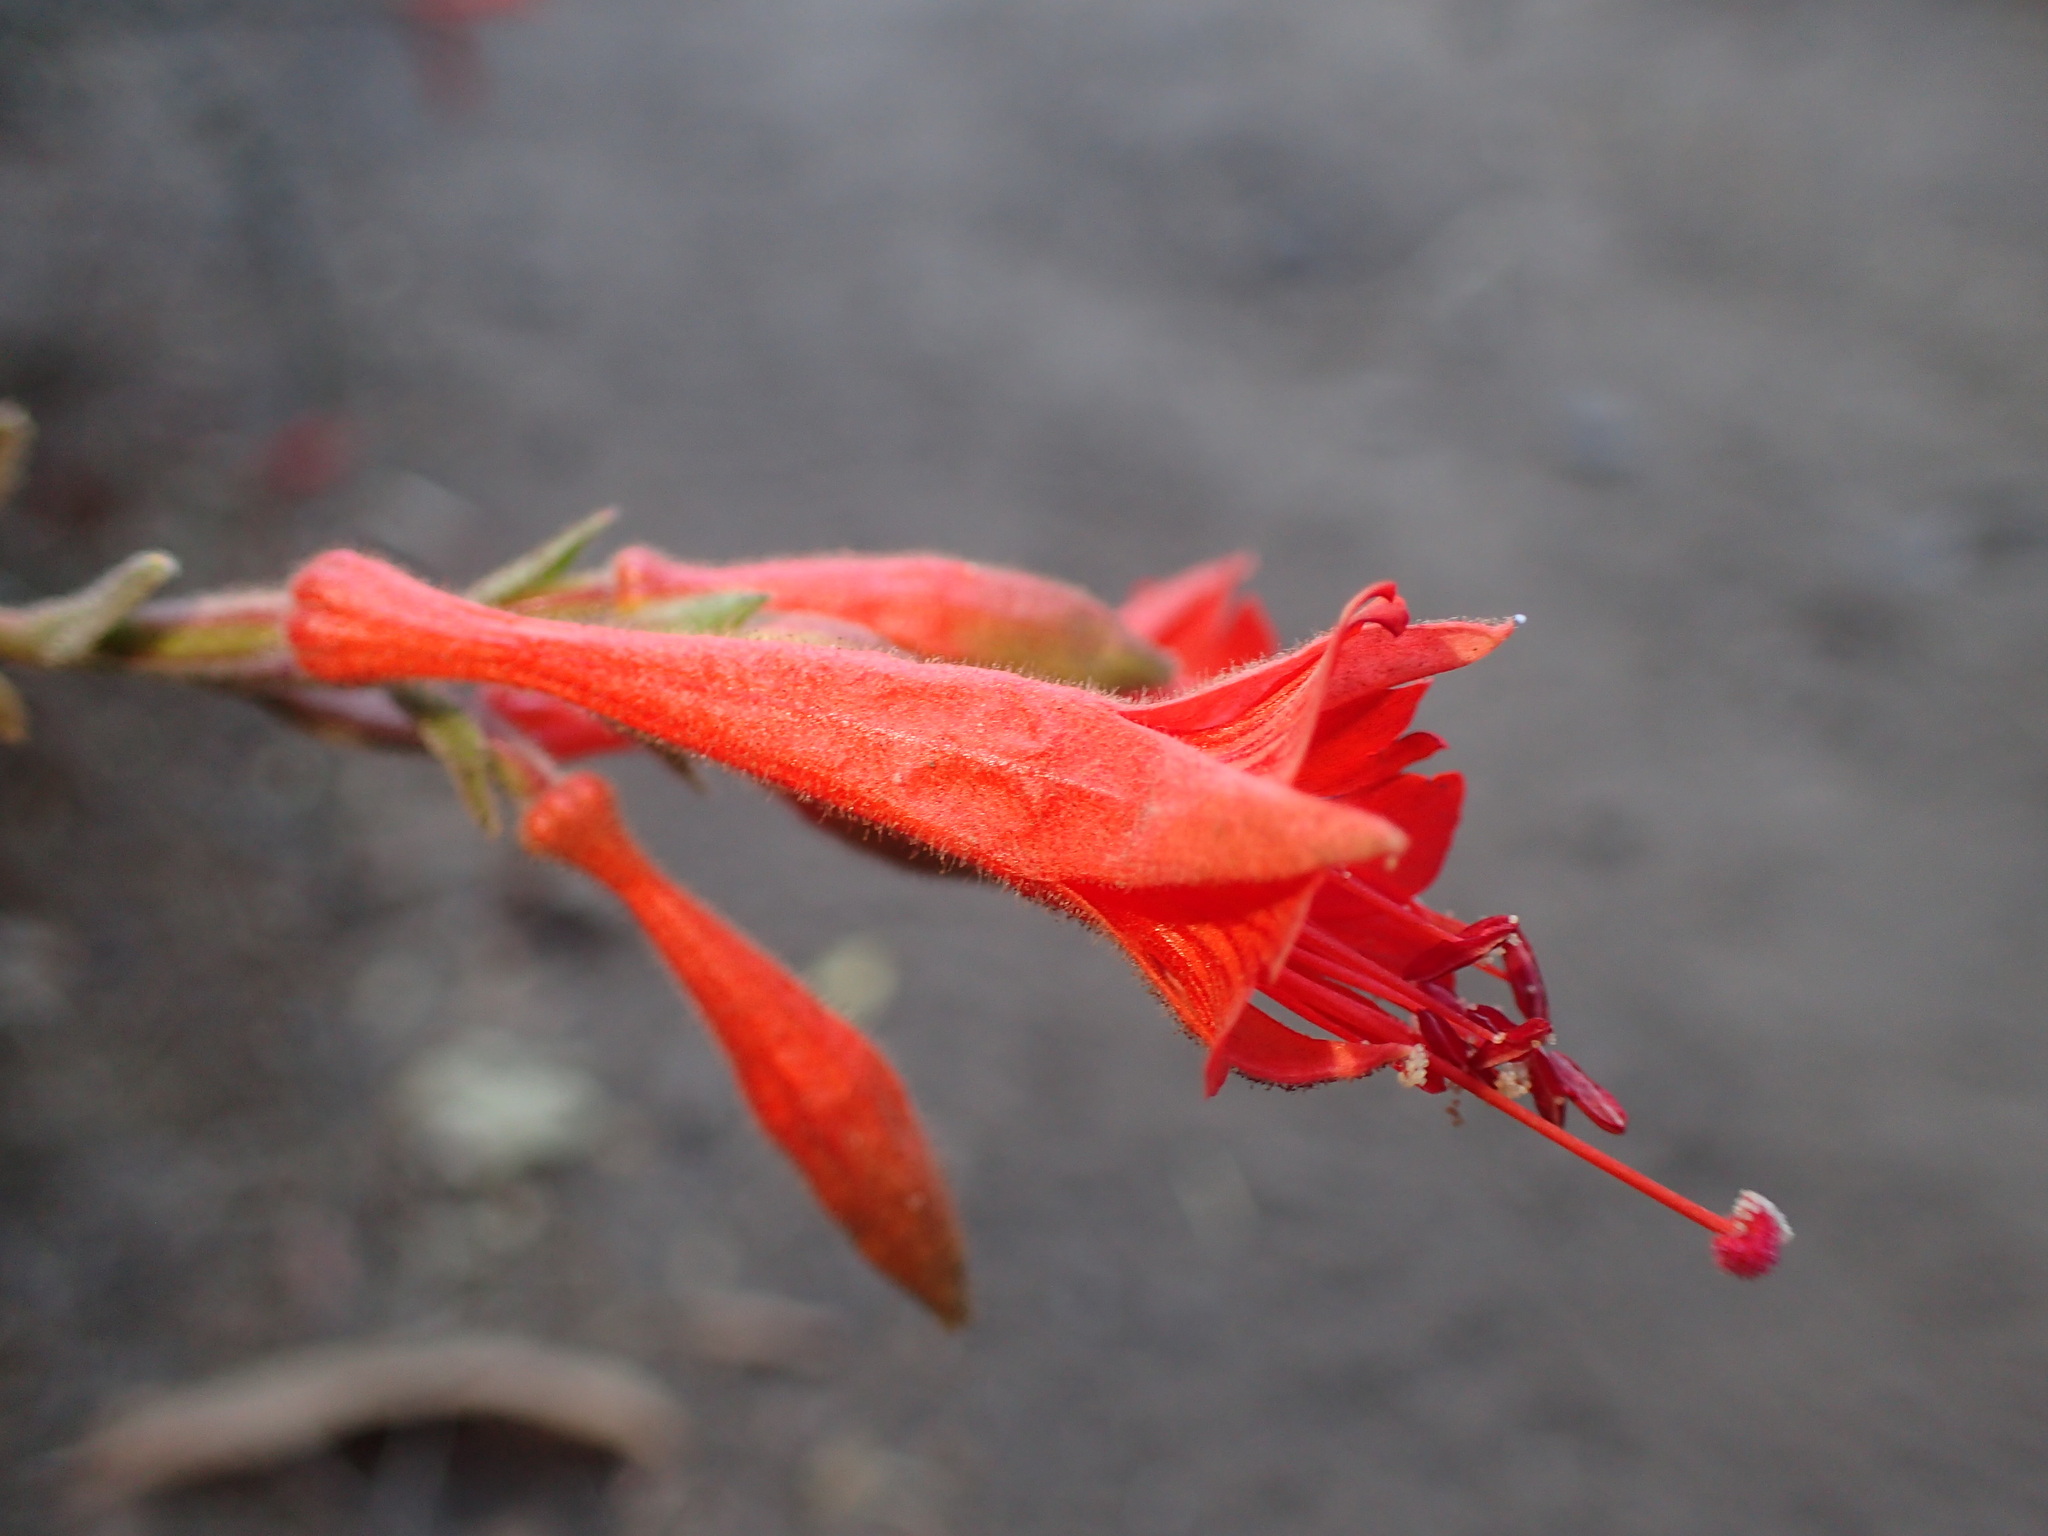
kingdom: Plantae
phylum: Tracheophyta
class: Magnoliopsida
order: Myrtales
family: Onagraceae
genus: Epilobium
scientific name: Epilobium canum
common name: California-fuchsia
